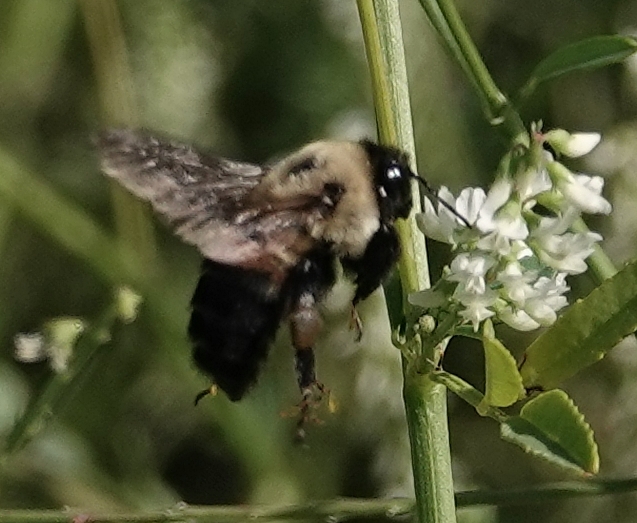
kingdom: Animalia
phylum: Arthropoda
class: Insecta
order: Hymenoptera
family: Apidae
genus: Bombus
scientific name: Bombus griseocollis
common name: Brown-belted bumble bee
